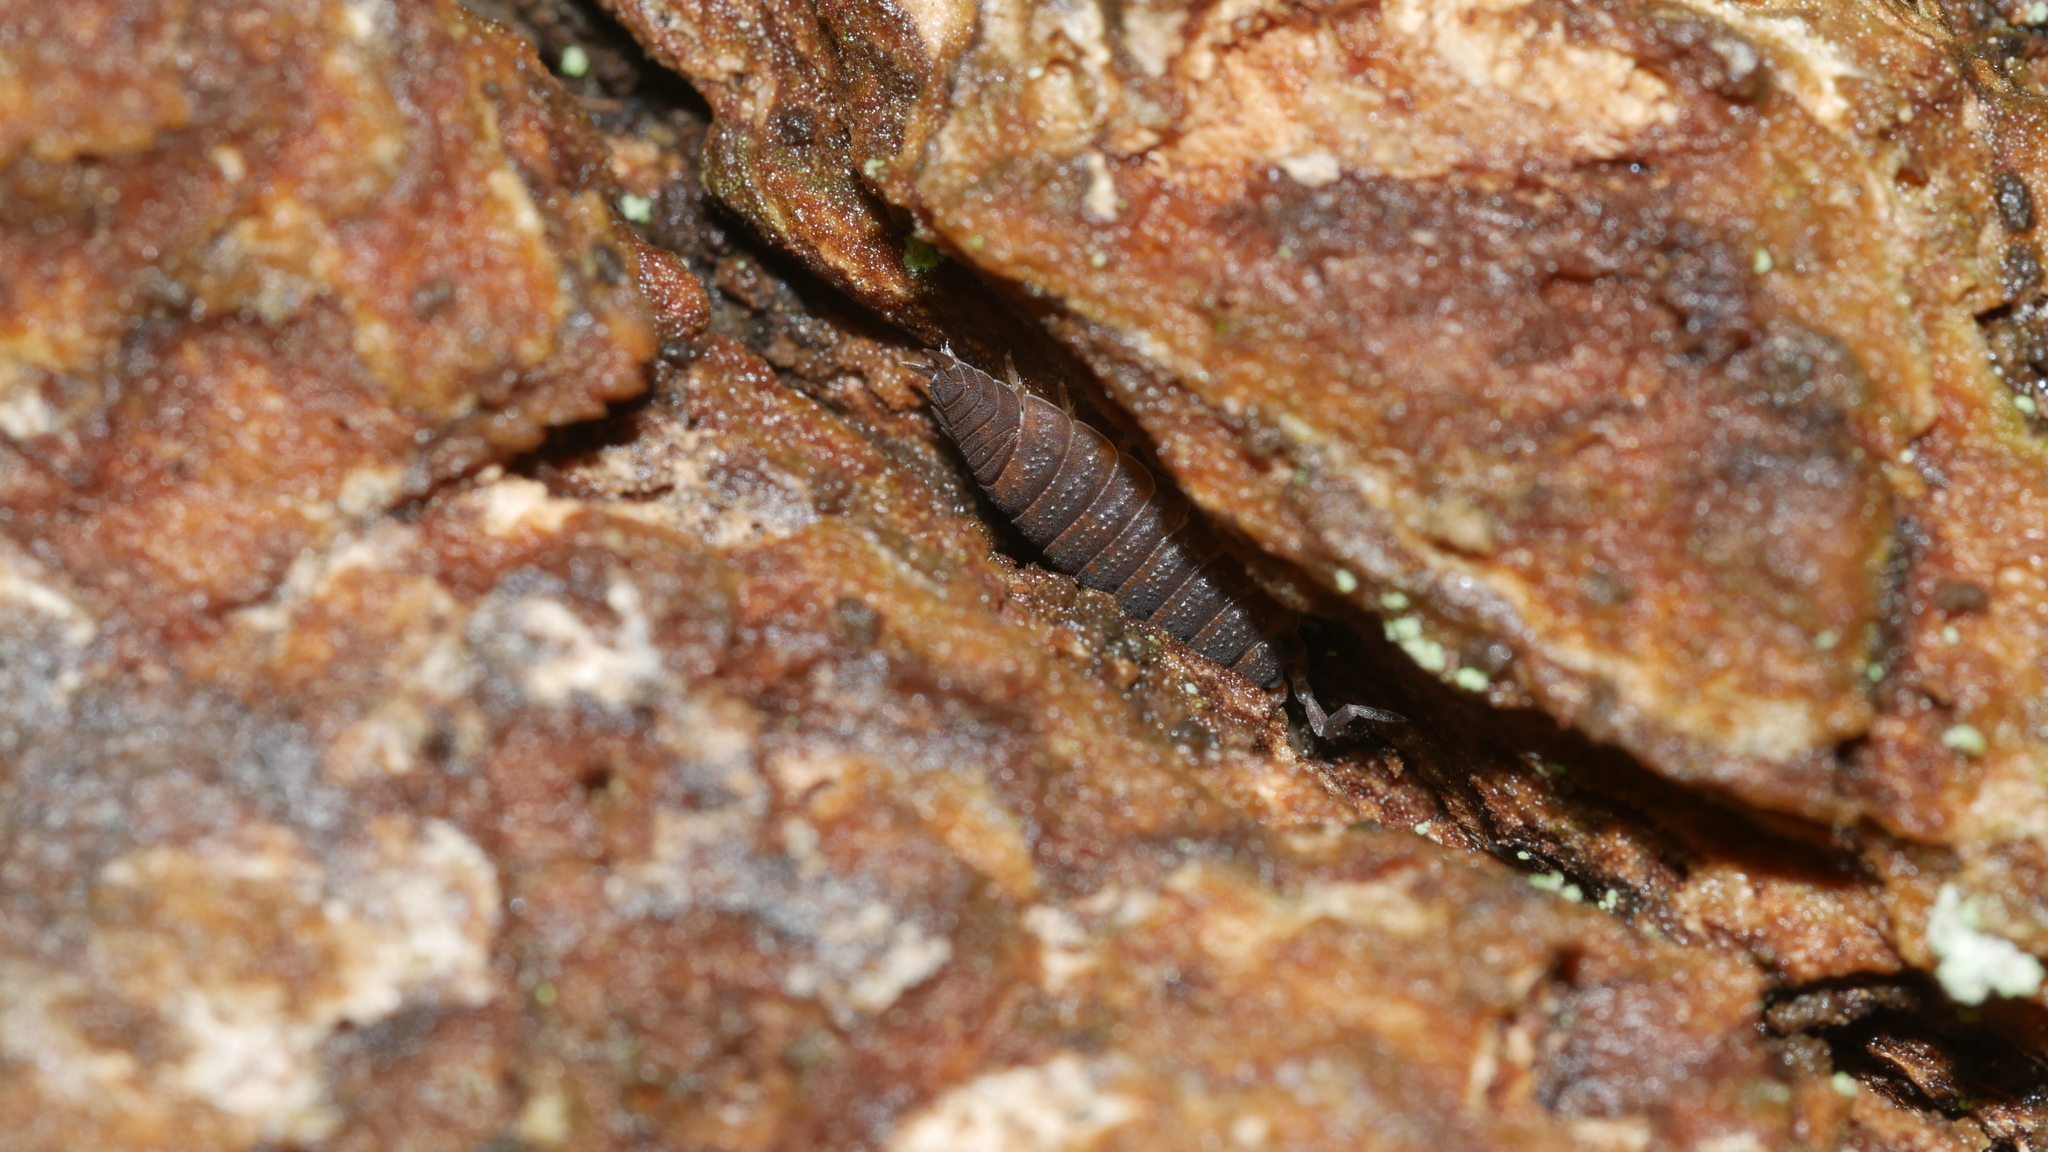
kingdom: Animalia
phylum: Arthropoda
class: Malacostraca
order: Isopoda
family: Porcellionidae
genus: Porcellio
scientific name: Porcellio scaber
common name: Common rough woodlouse
